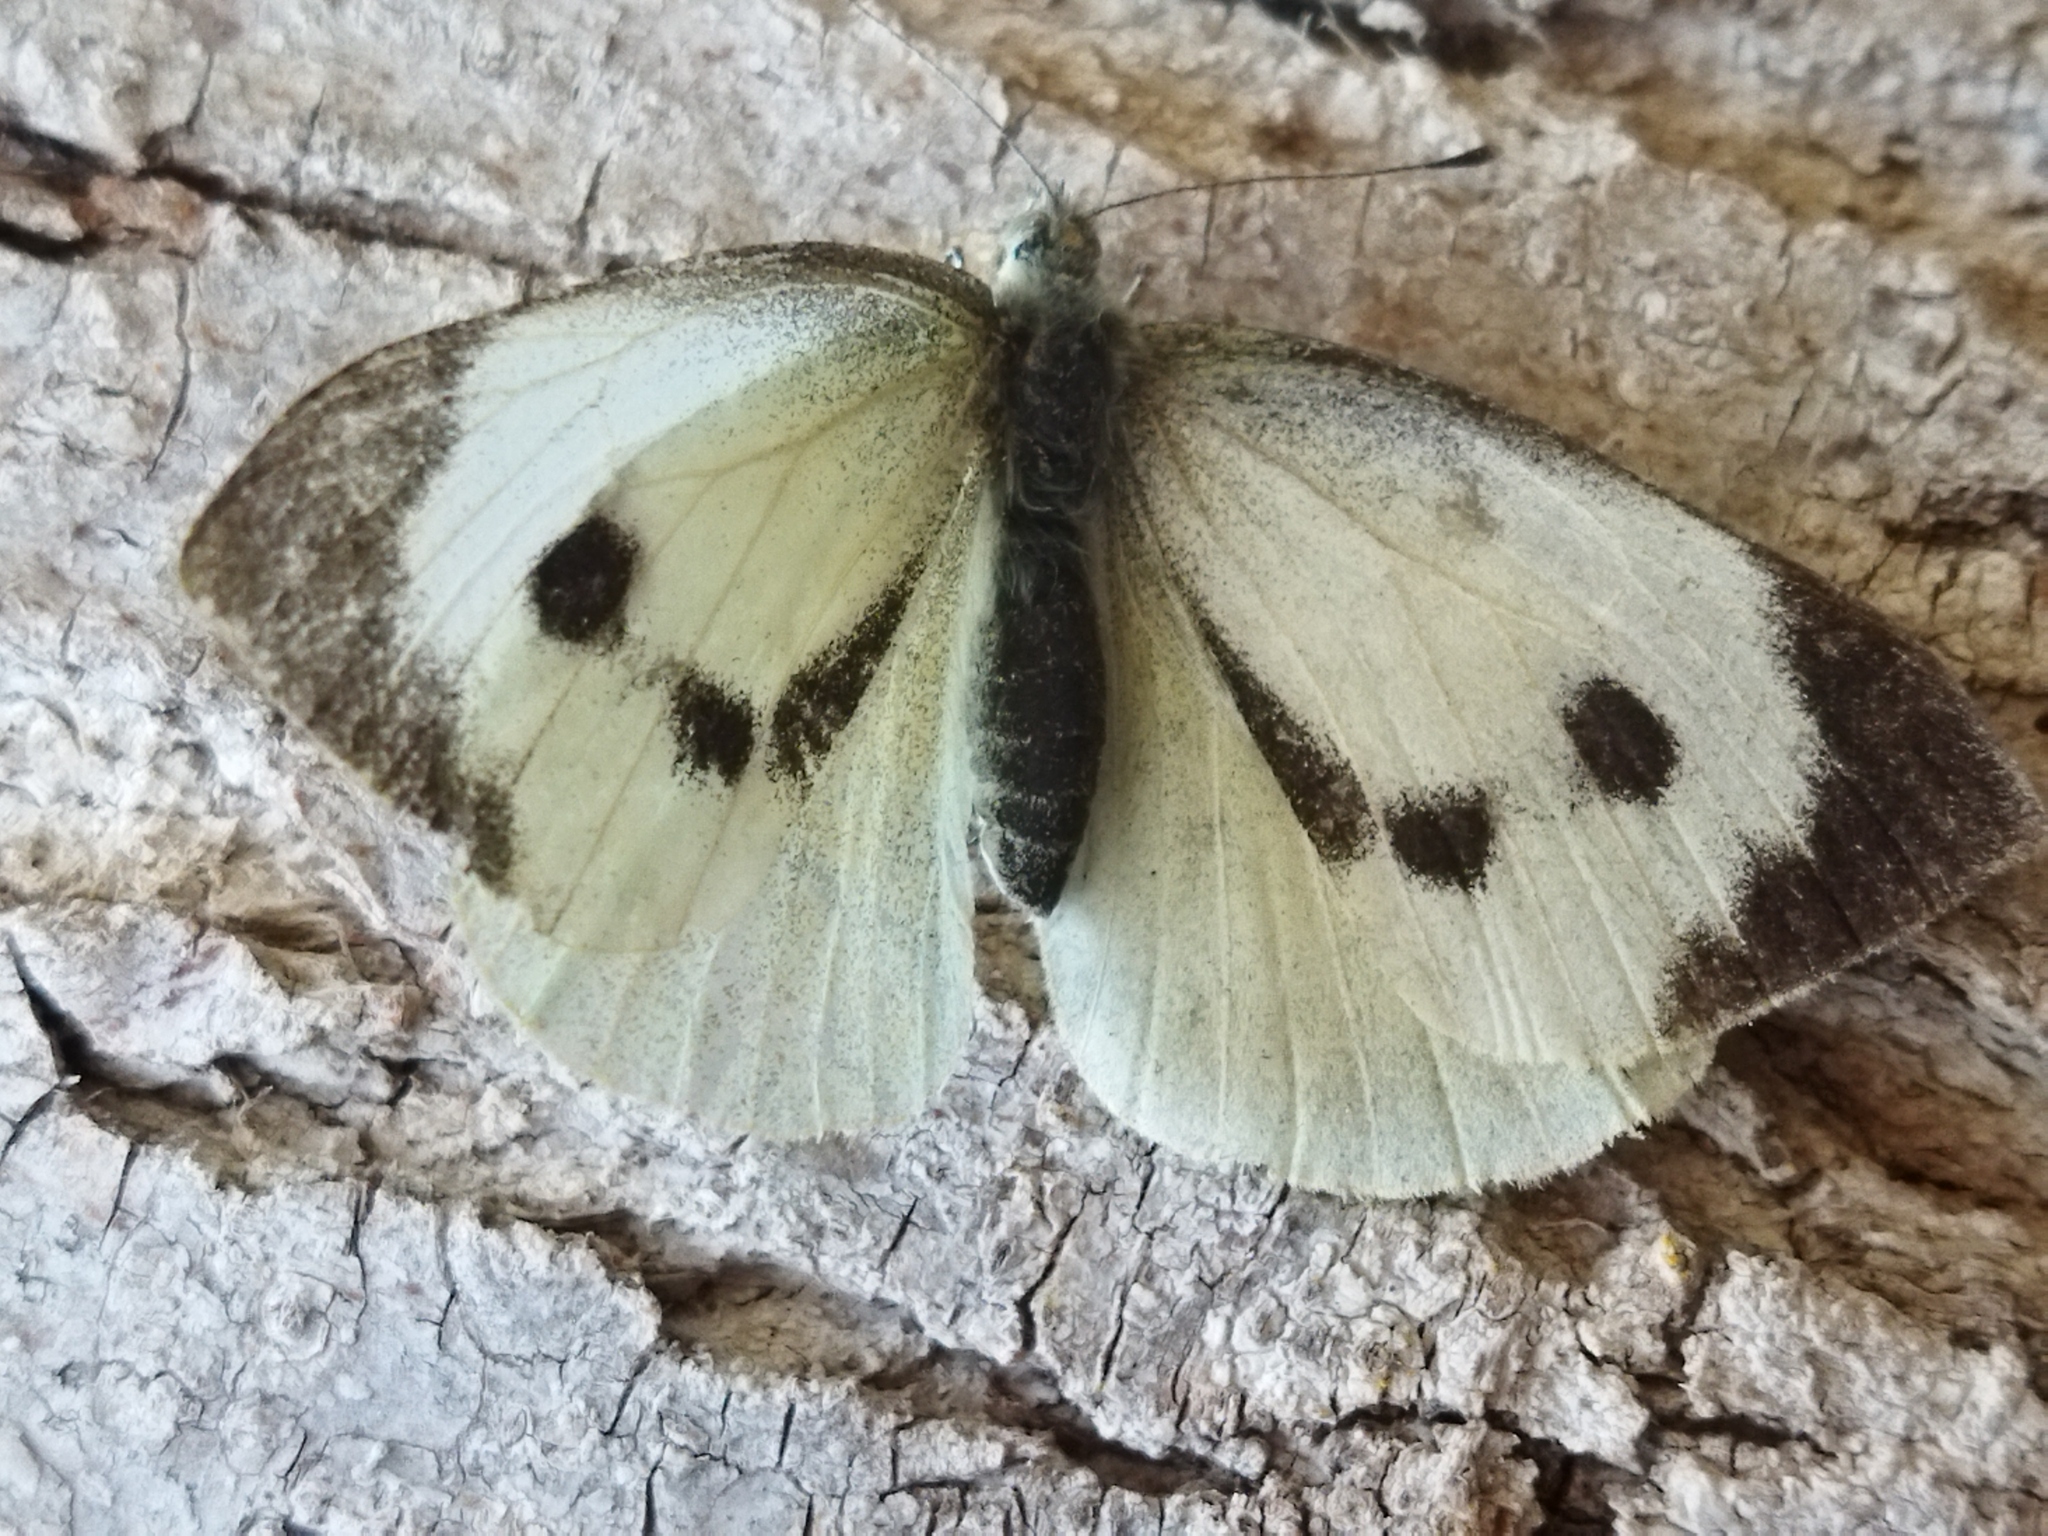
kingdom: Animalia
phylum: Arthropoda
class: Insecta
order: Lepidoptera
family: Pieridae
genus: Pieris
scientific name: Pieris brassicae
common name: Large white
